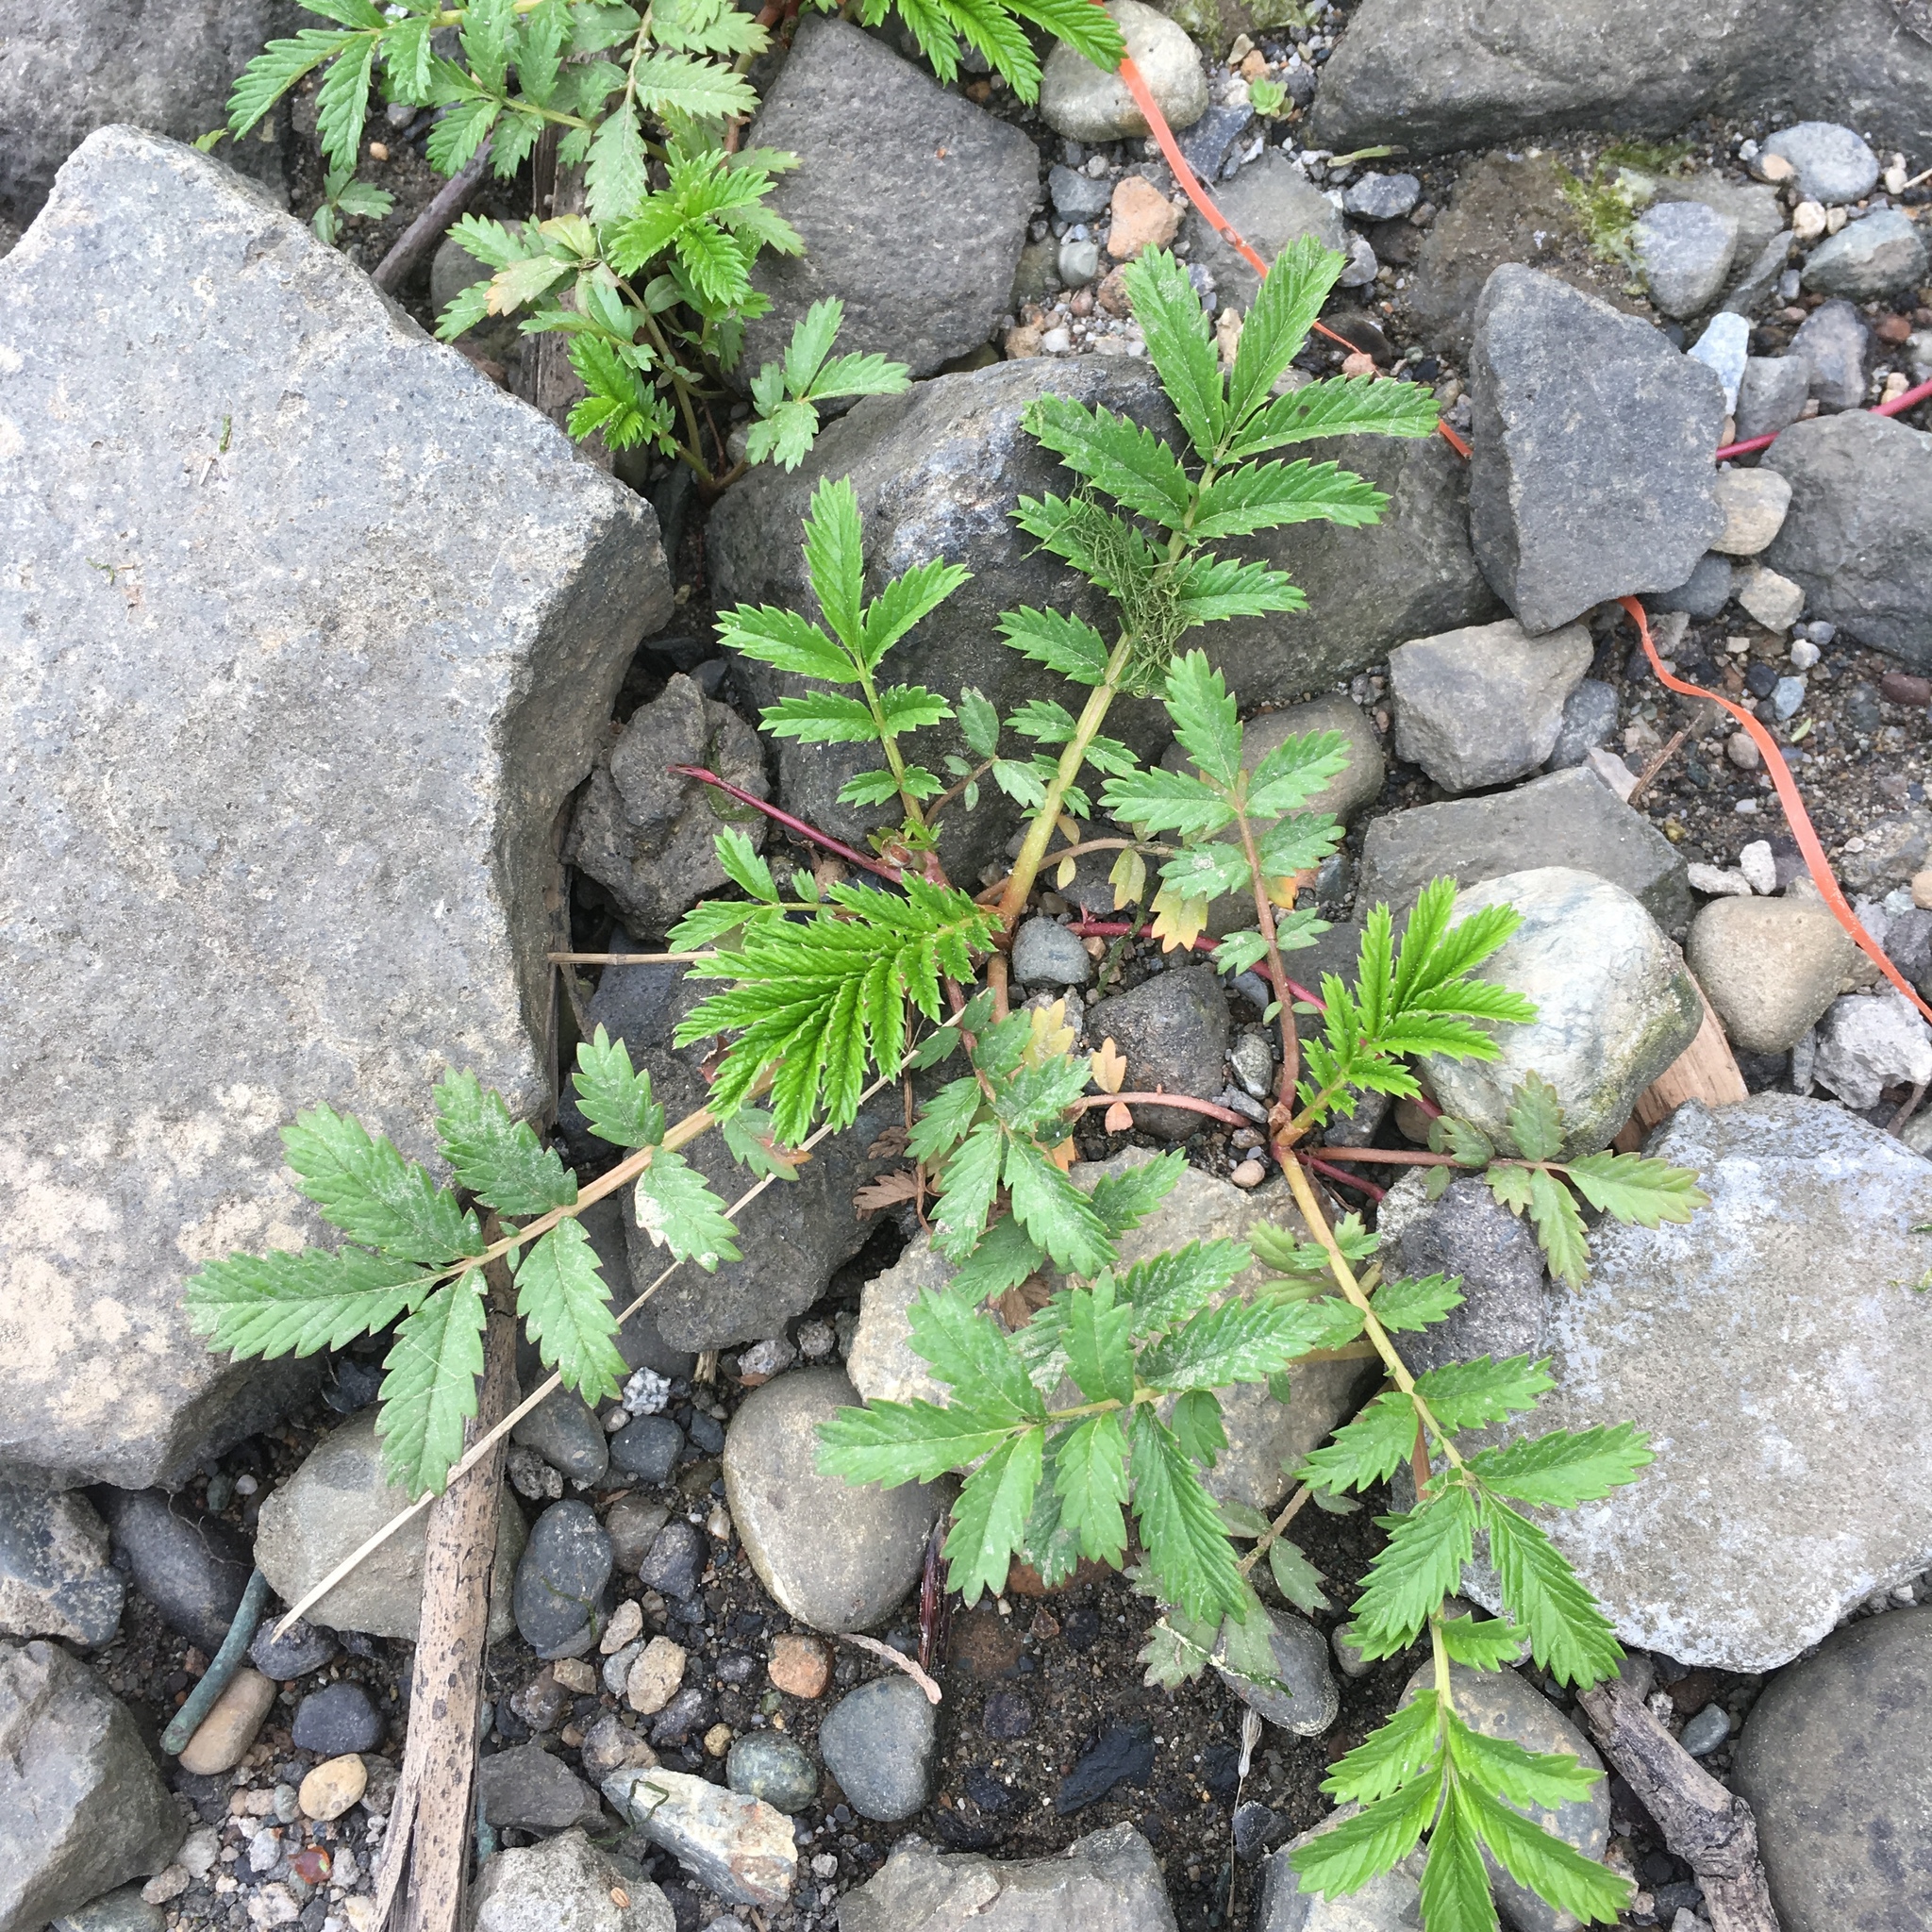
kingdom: Plantae
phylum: Tracheophyta
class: Magnoliopsida
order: Rosales
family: Rosaceae
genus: Argentina
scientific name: Argentina anserina
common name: Common silverweed
